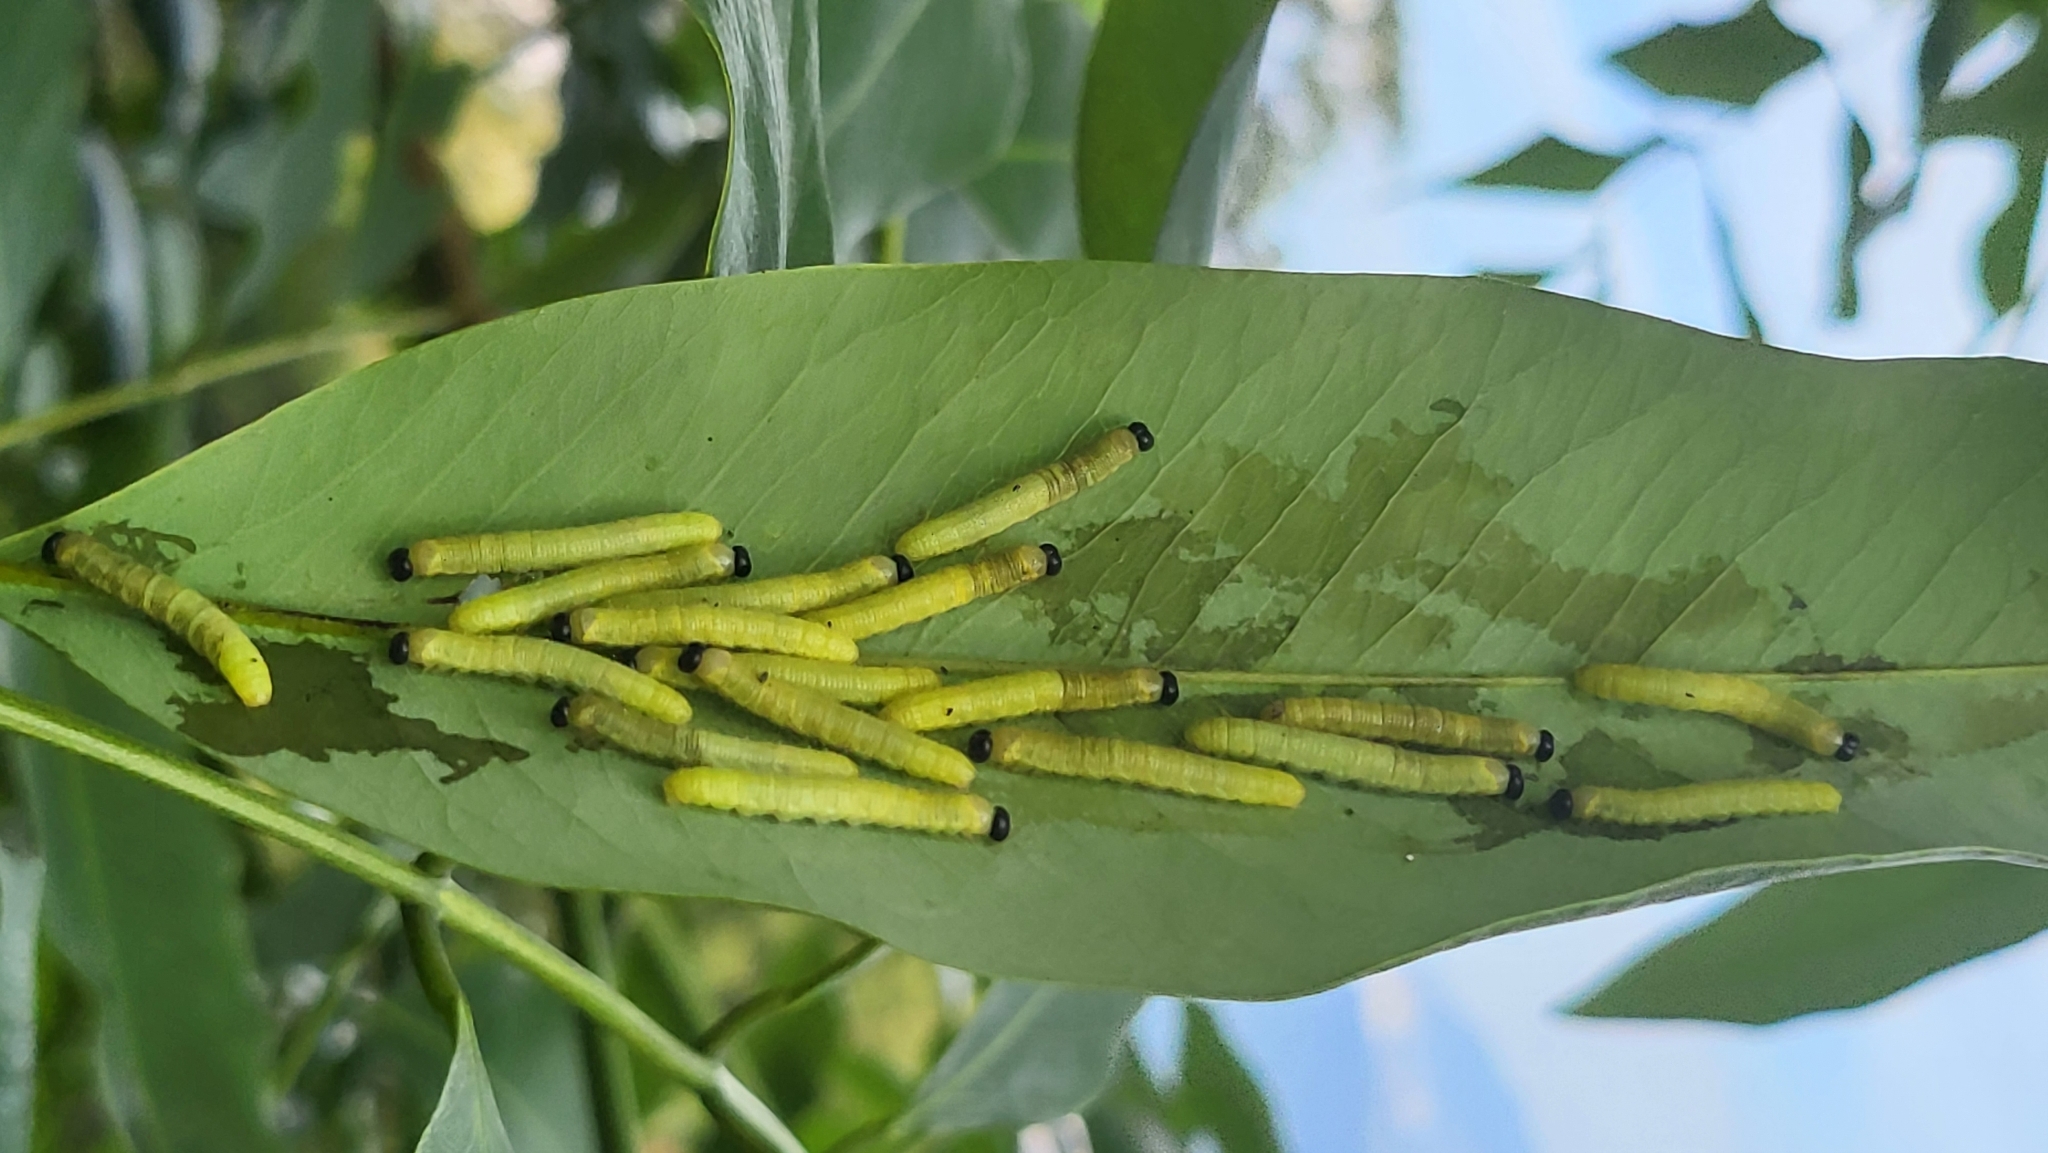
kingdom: Animalia
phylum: Arthropoda
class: Insecta
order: Lepidoptera
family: Pieridae
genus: Eurema
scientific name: Eurema blanda
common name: Three-spot grass yellow
